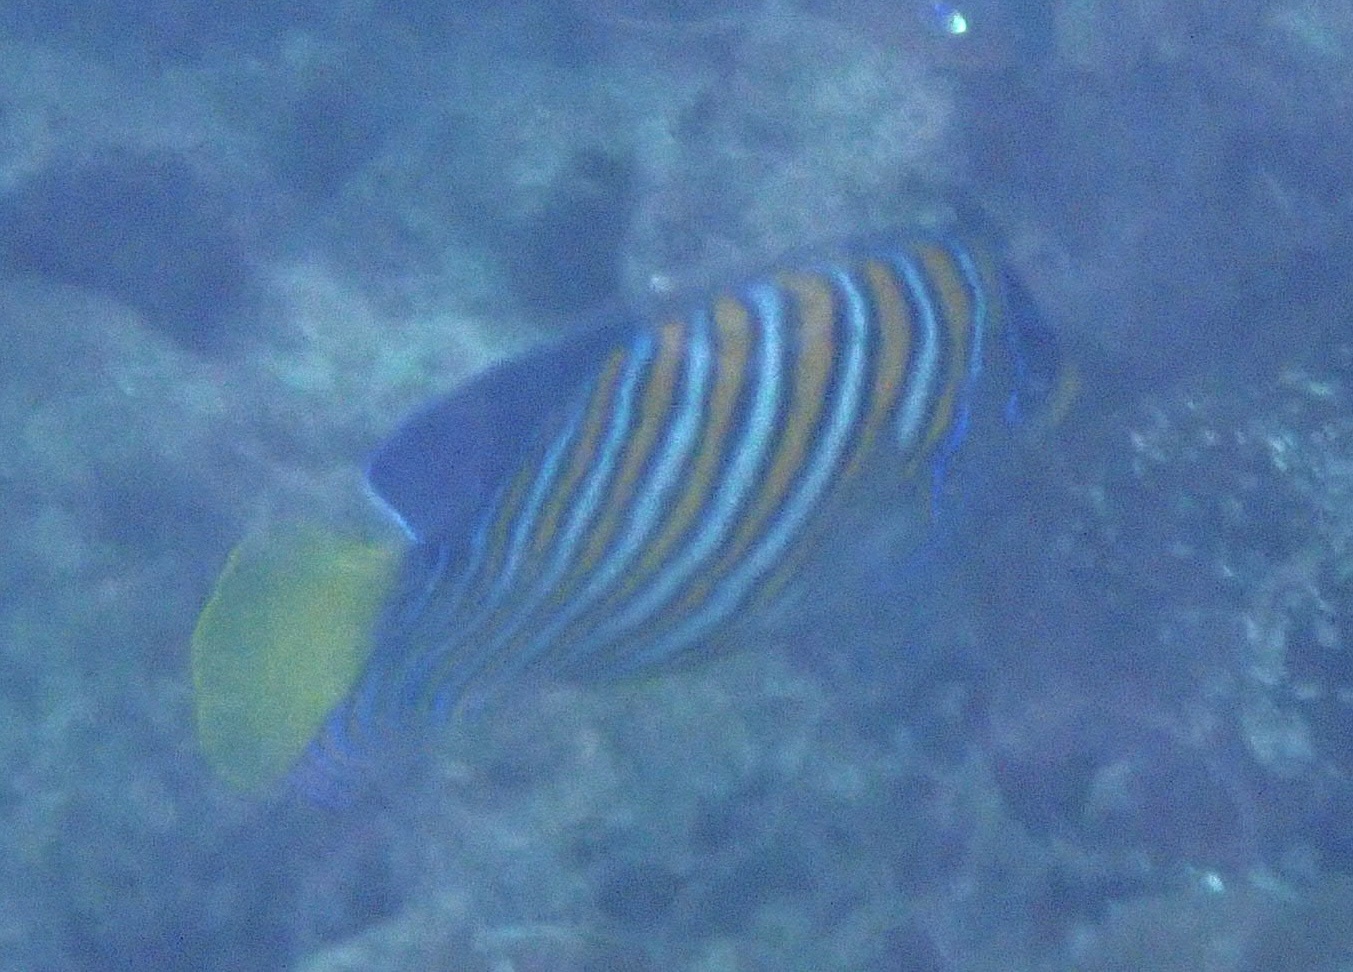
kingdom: Animalia
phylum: Chordata
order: Perciformes
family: Pomacanthidae
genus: Pygoplites
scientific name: Pygoplites diacanthus
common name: Regal angelfish
